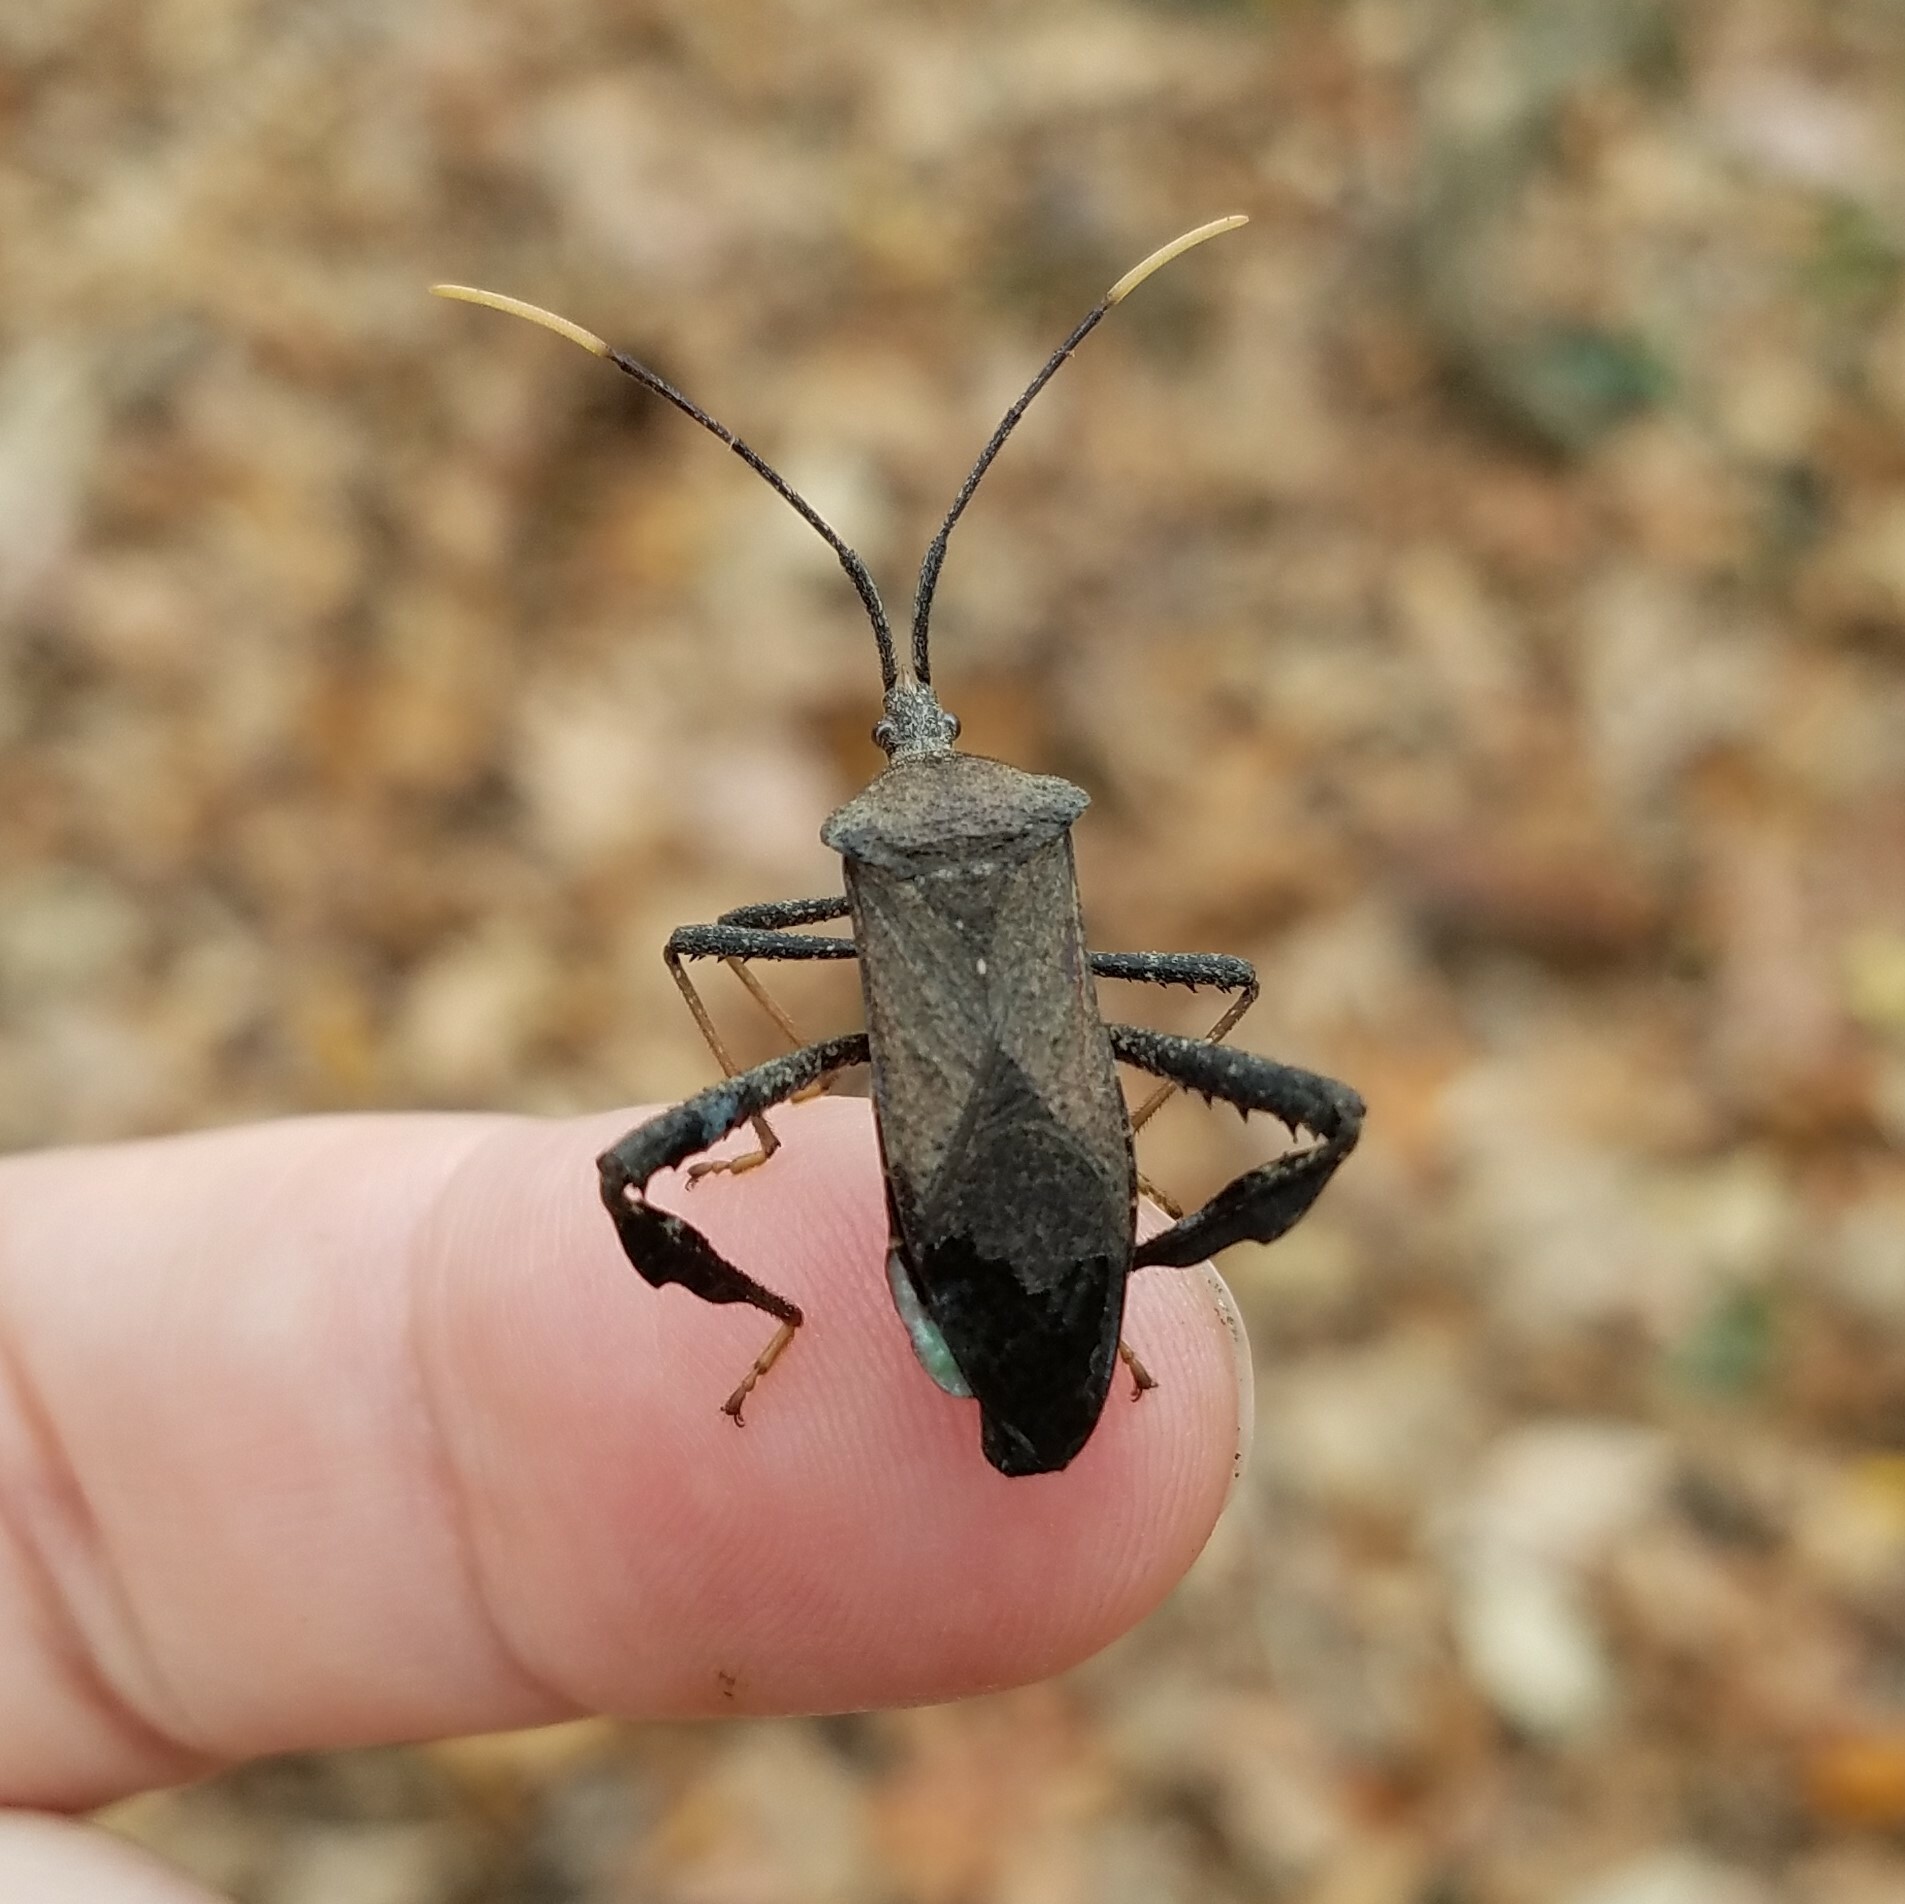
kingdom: Animalia
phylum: Arthropoda
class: Insecta
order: Hemiptera
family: Coreidae
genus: Acanthocephala
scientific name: Acanthocephala terminalis
